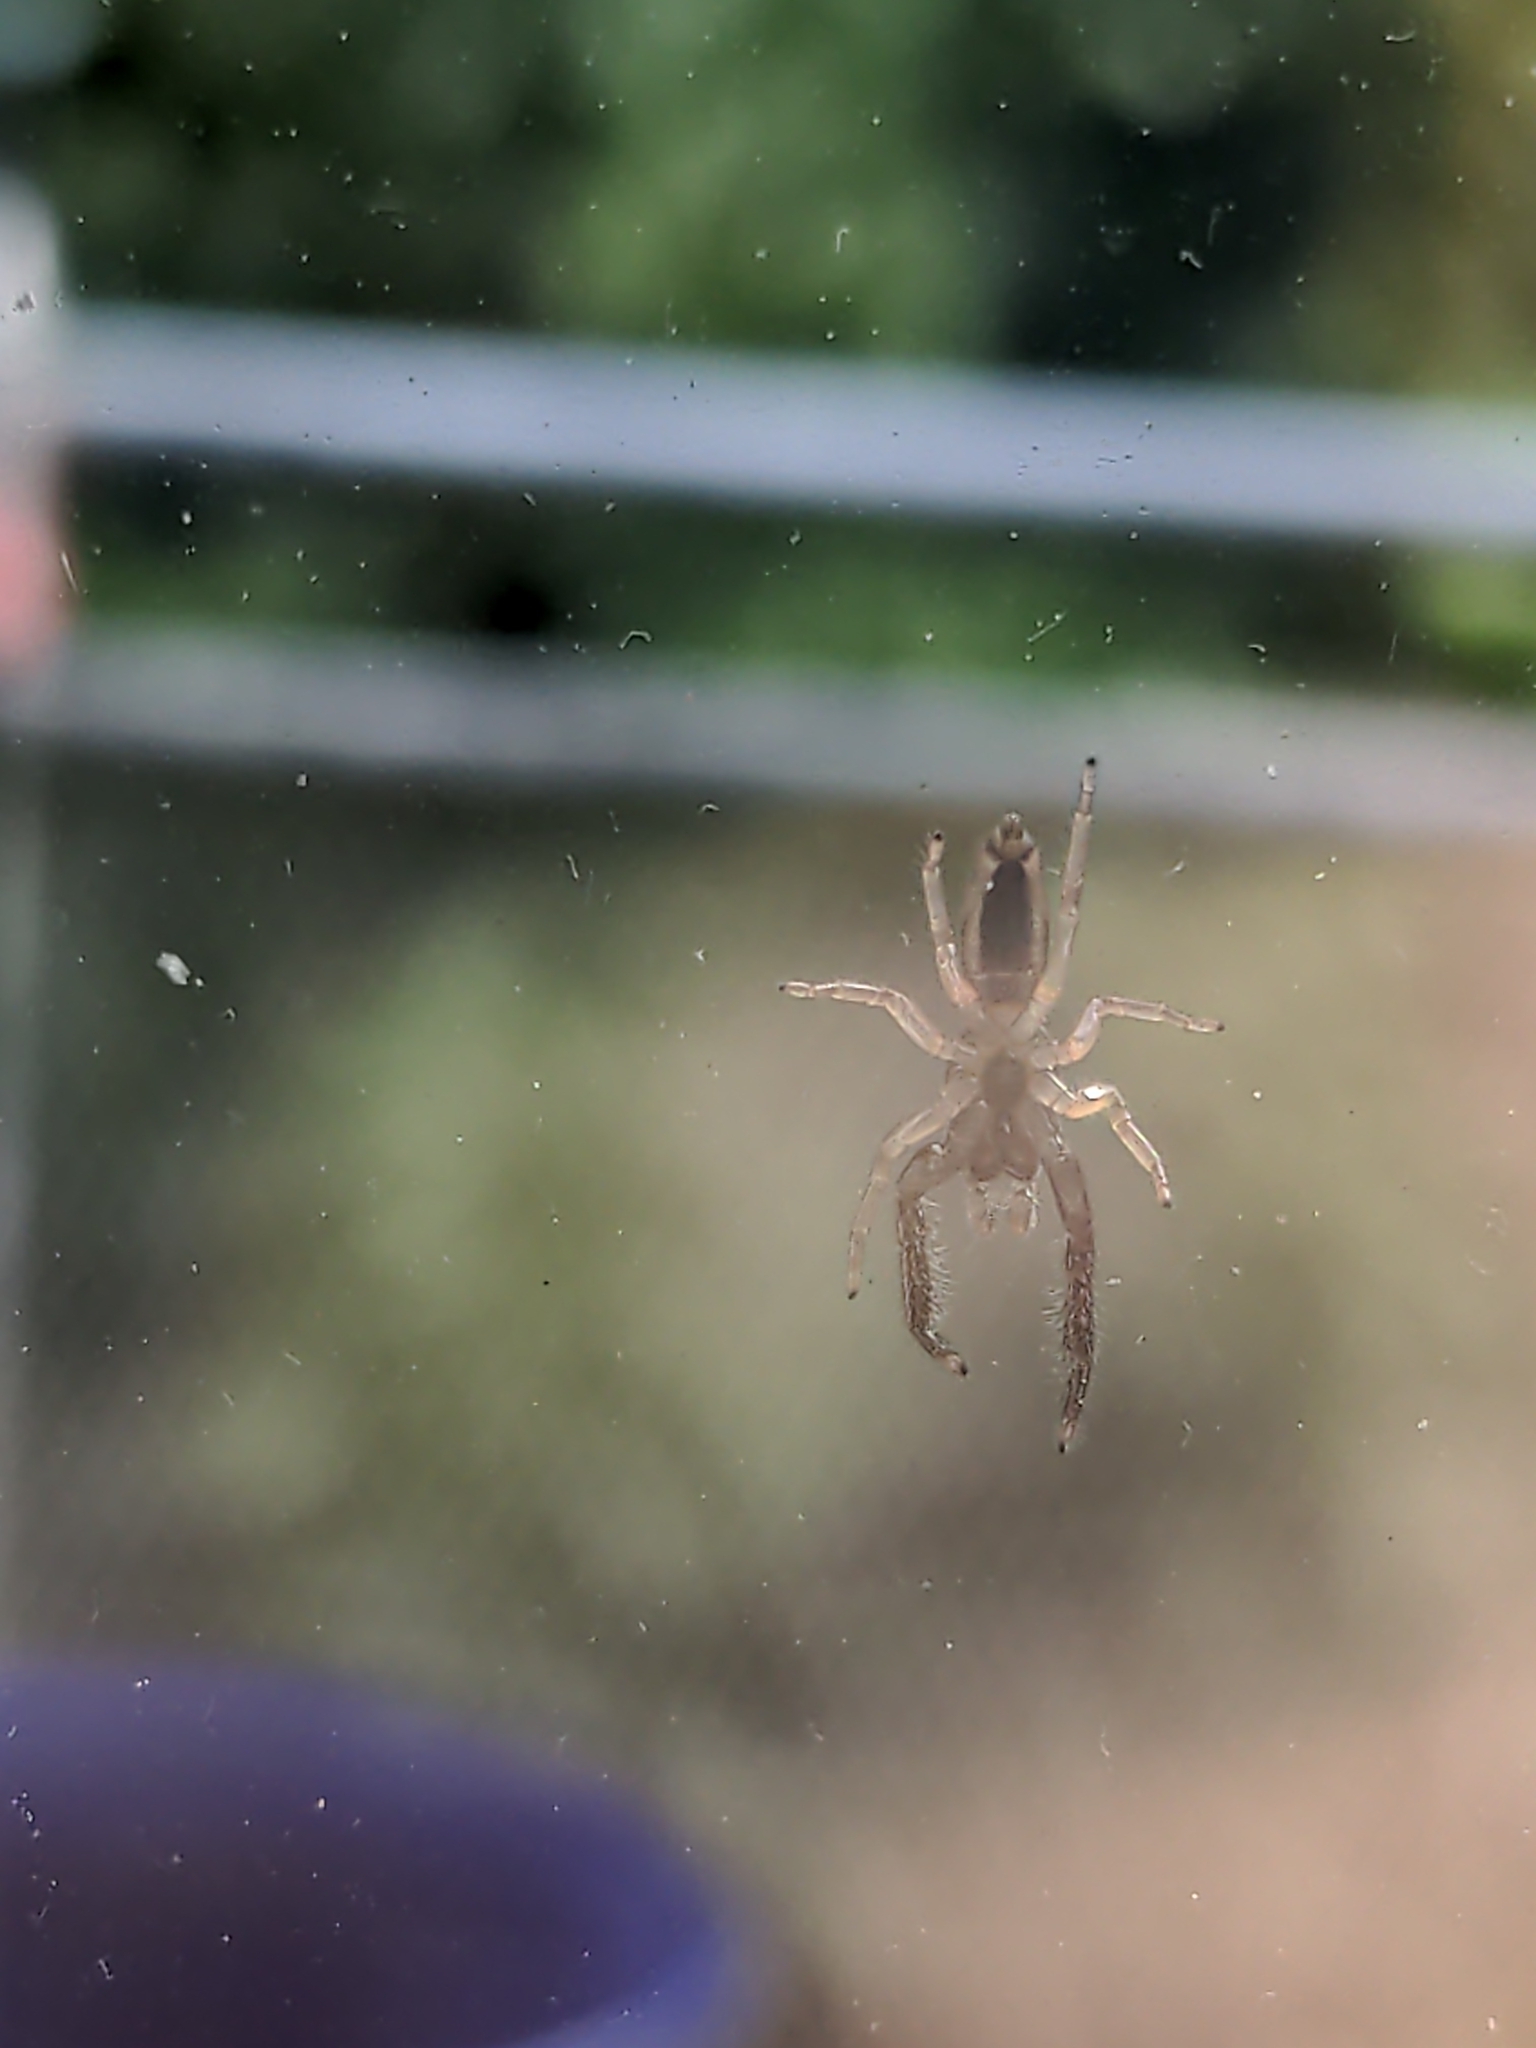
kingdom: Animalia
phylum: Arthropoda
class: Arachnida
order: Araneae
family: Salticidae
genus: Trite
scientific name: Trite planiceps
